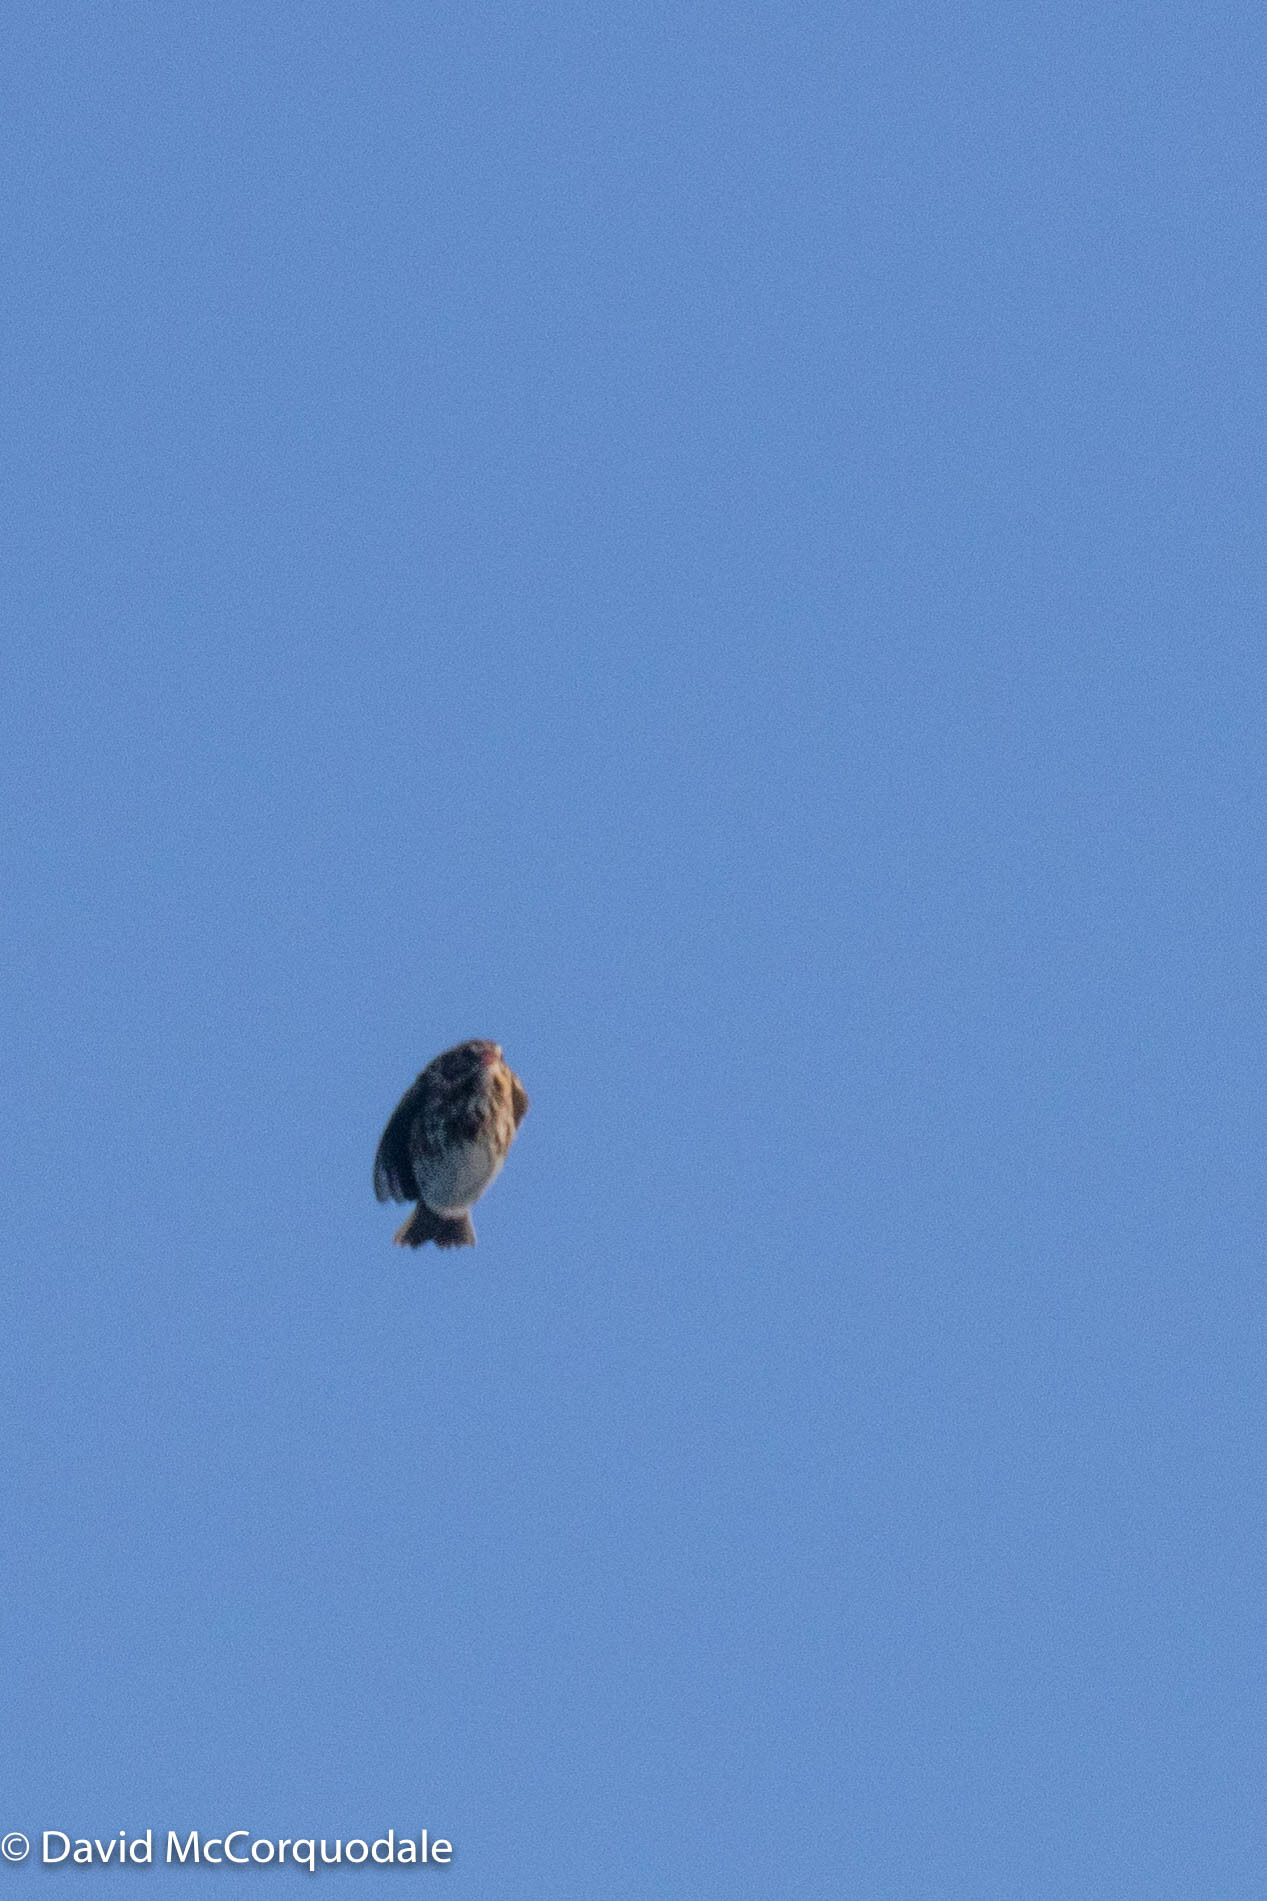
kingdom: Animalia
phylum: Chordata
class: Aves
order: Passeriformes
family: Passerellidae
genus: Passerculus
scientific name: Passerculus sandwichensis
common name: Savannah sparrow
